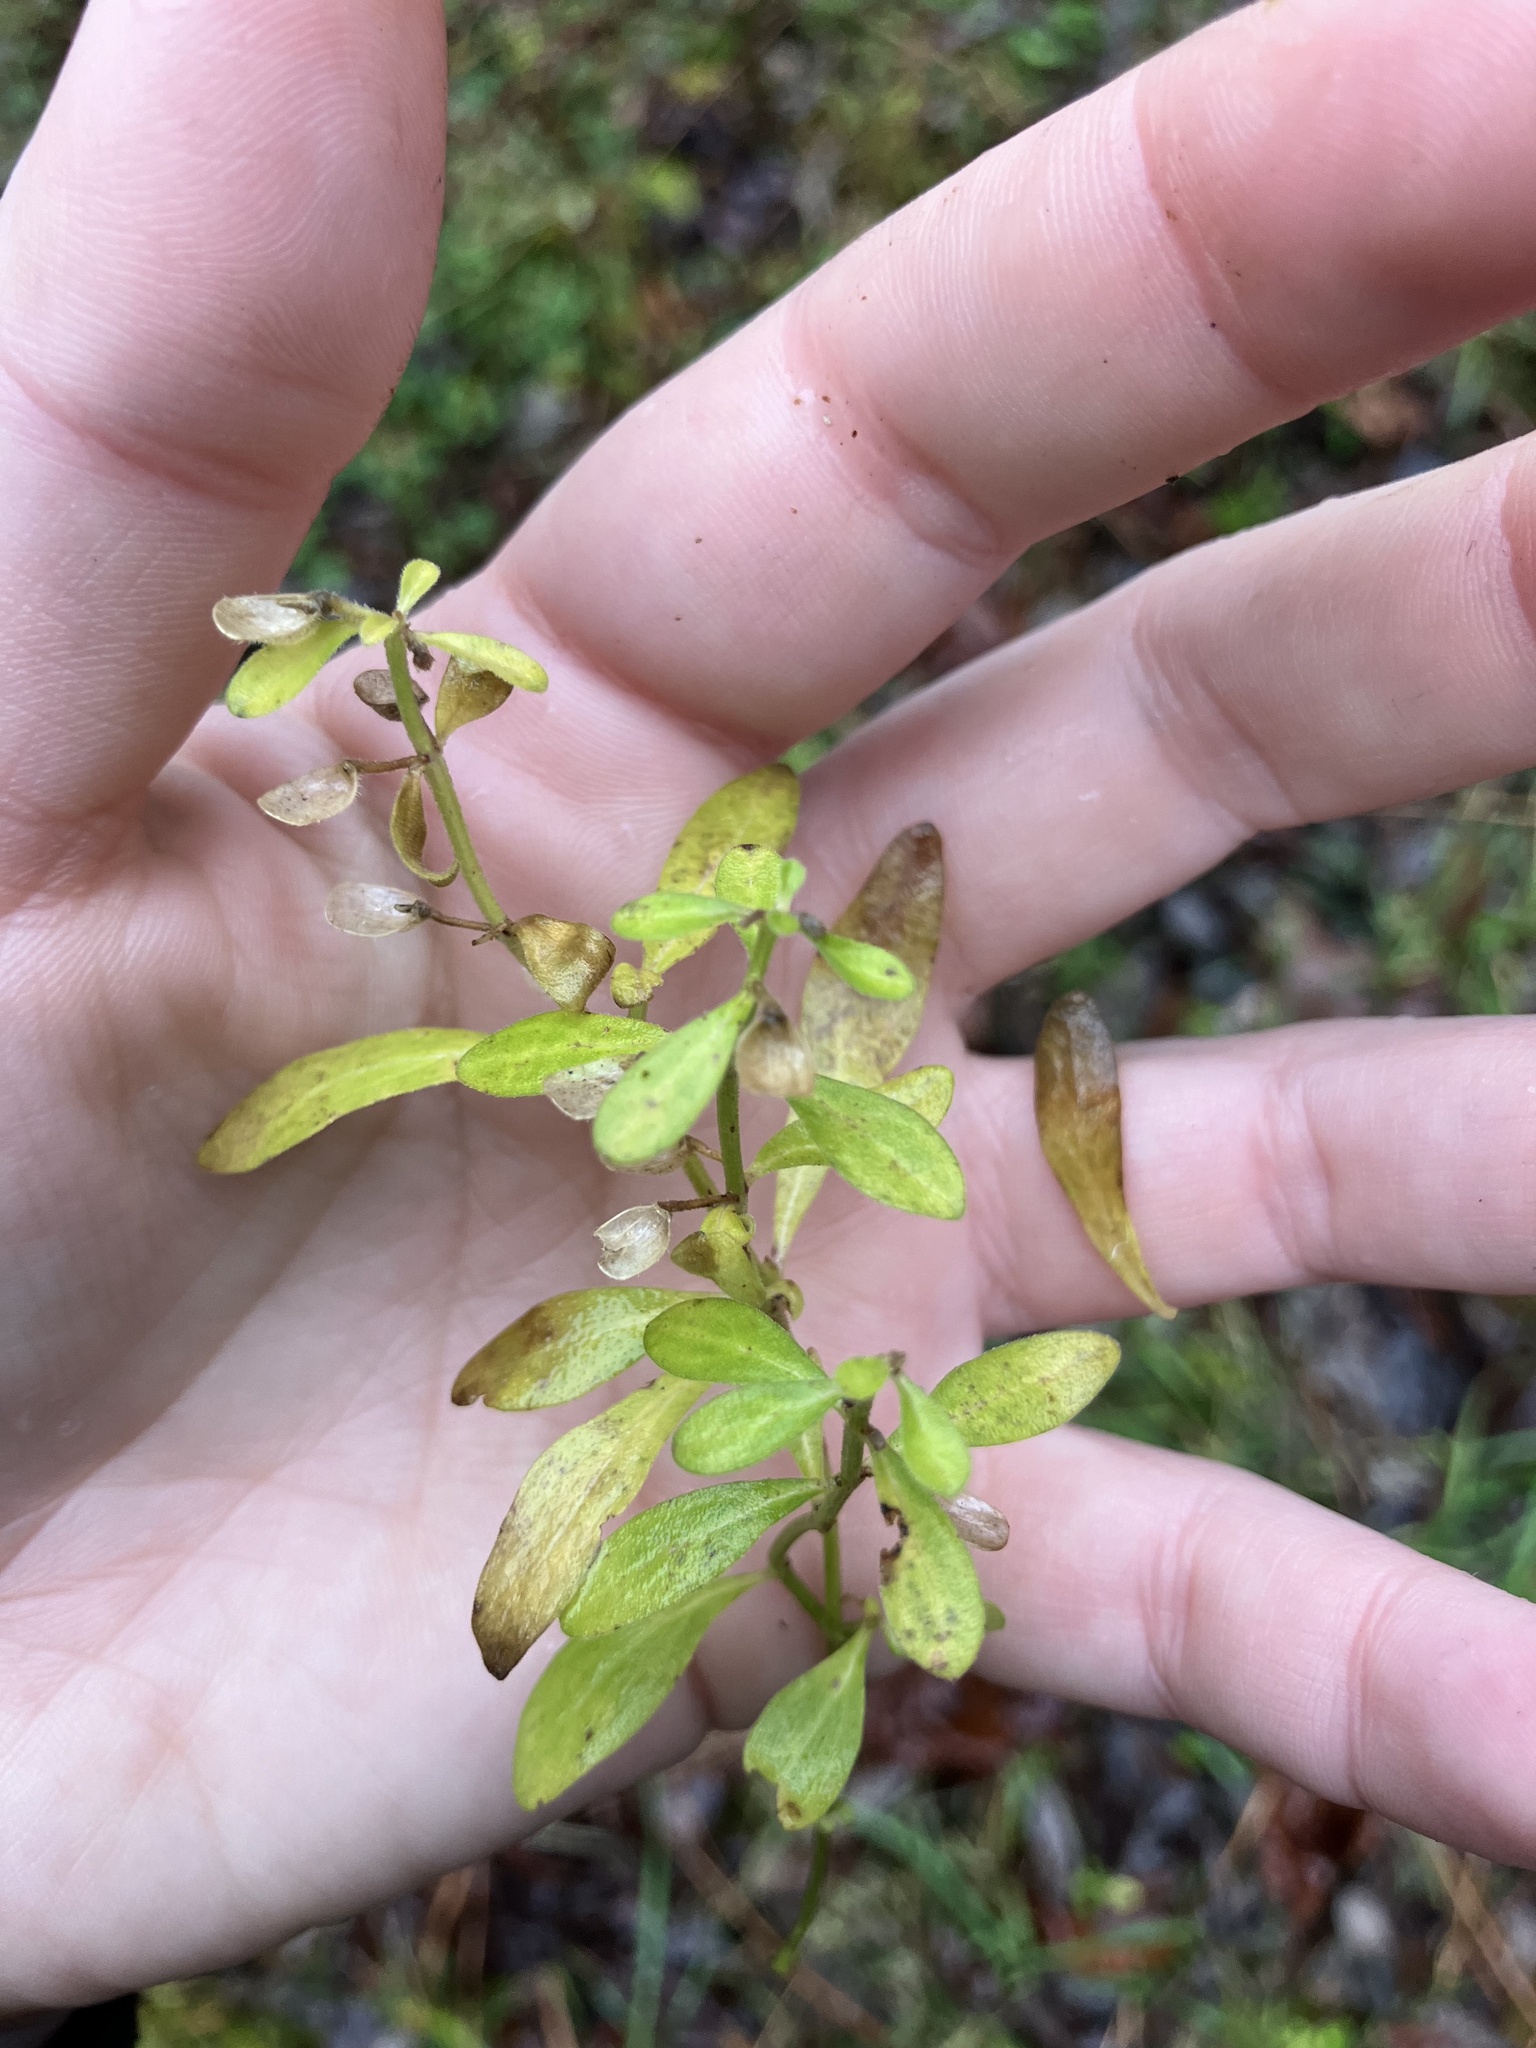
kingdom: Plantae
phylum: Tracheophyta
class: Magnoliopsida
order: Lamiales
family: Lamiaceae
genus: Scutellaria
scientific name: Scutellaria integrifolia
